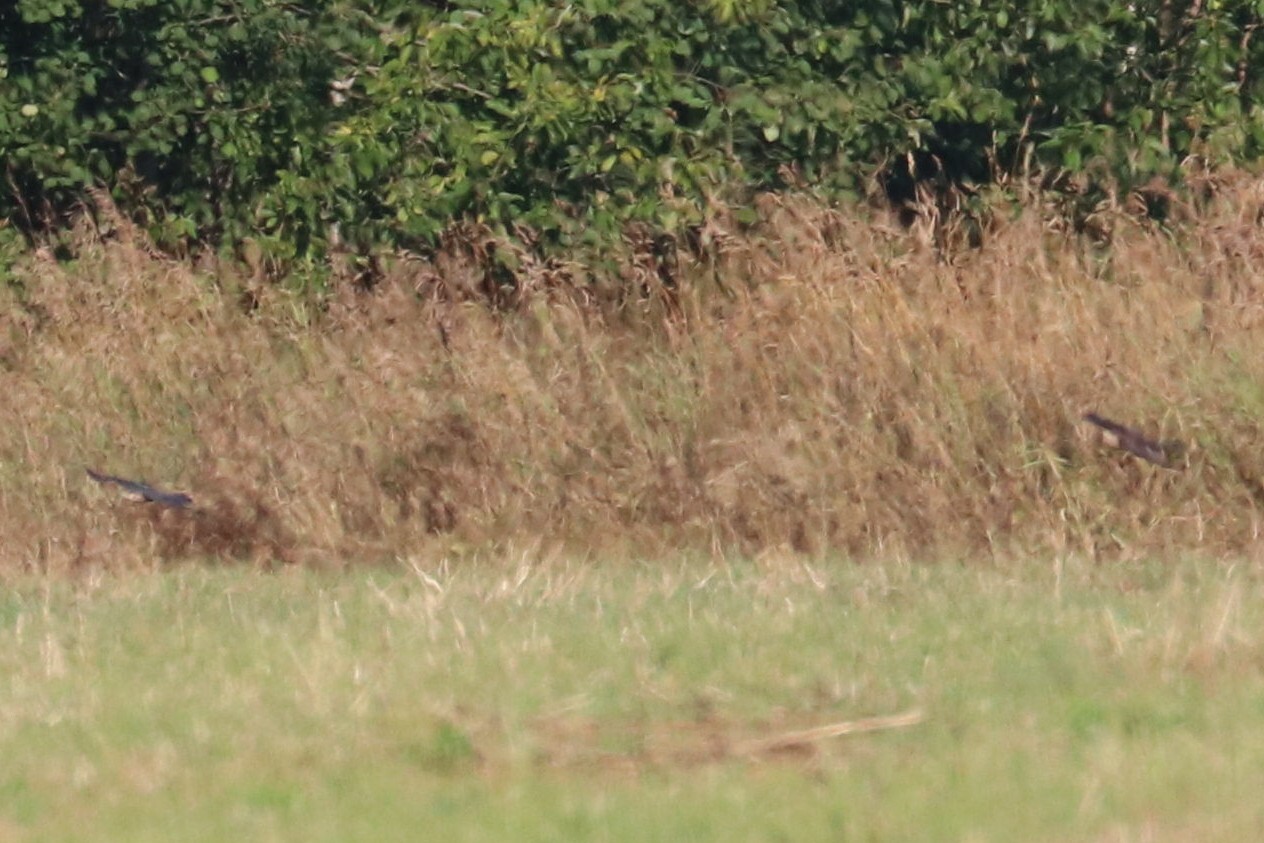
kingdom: Animalia
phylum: Chordata
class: Aves
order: Accipitriformes
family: Accipitridae
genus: Accipiter
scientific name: Accipiter nisus
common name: Eurasian sparrowhawk
